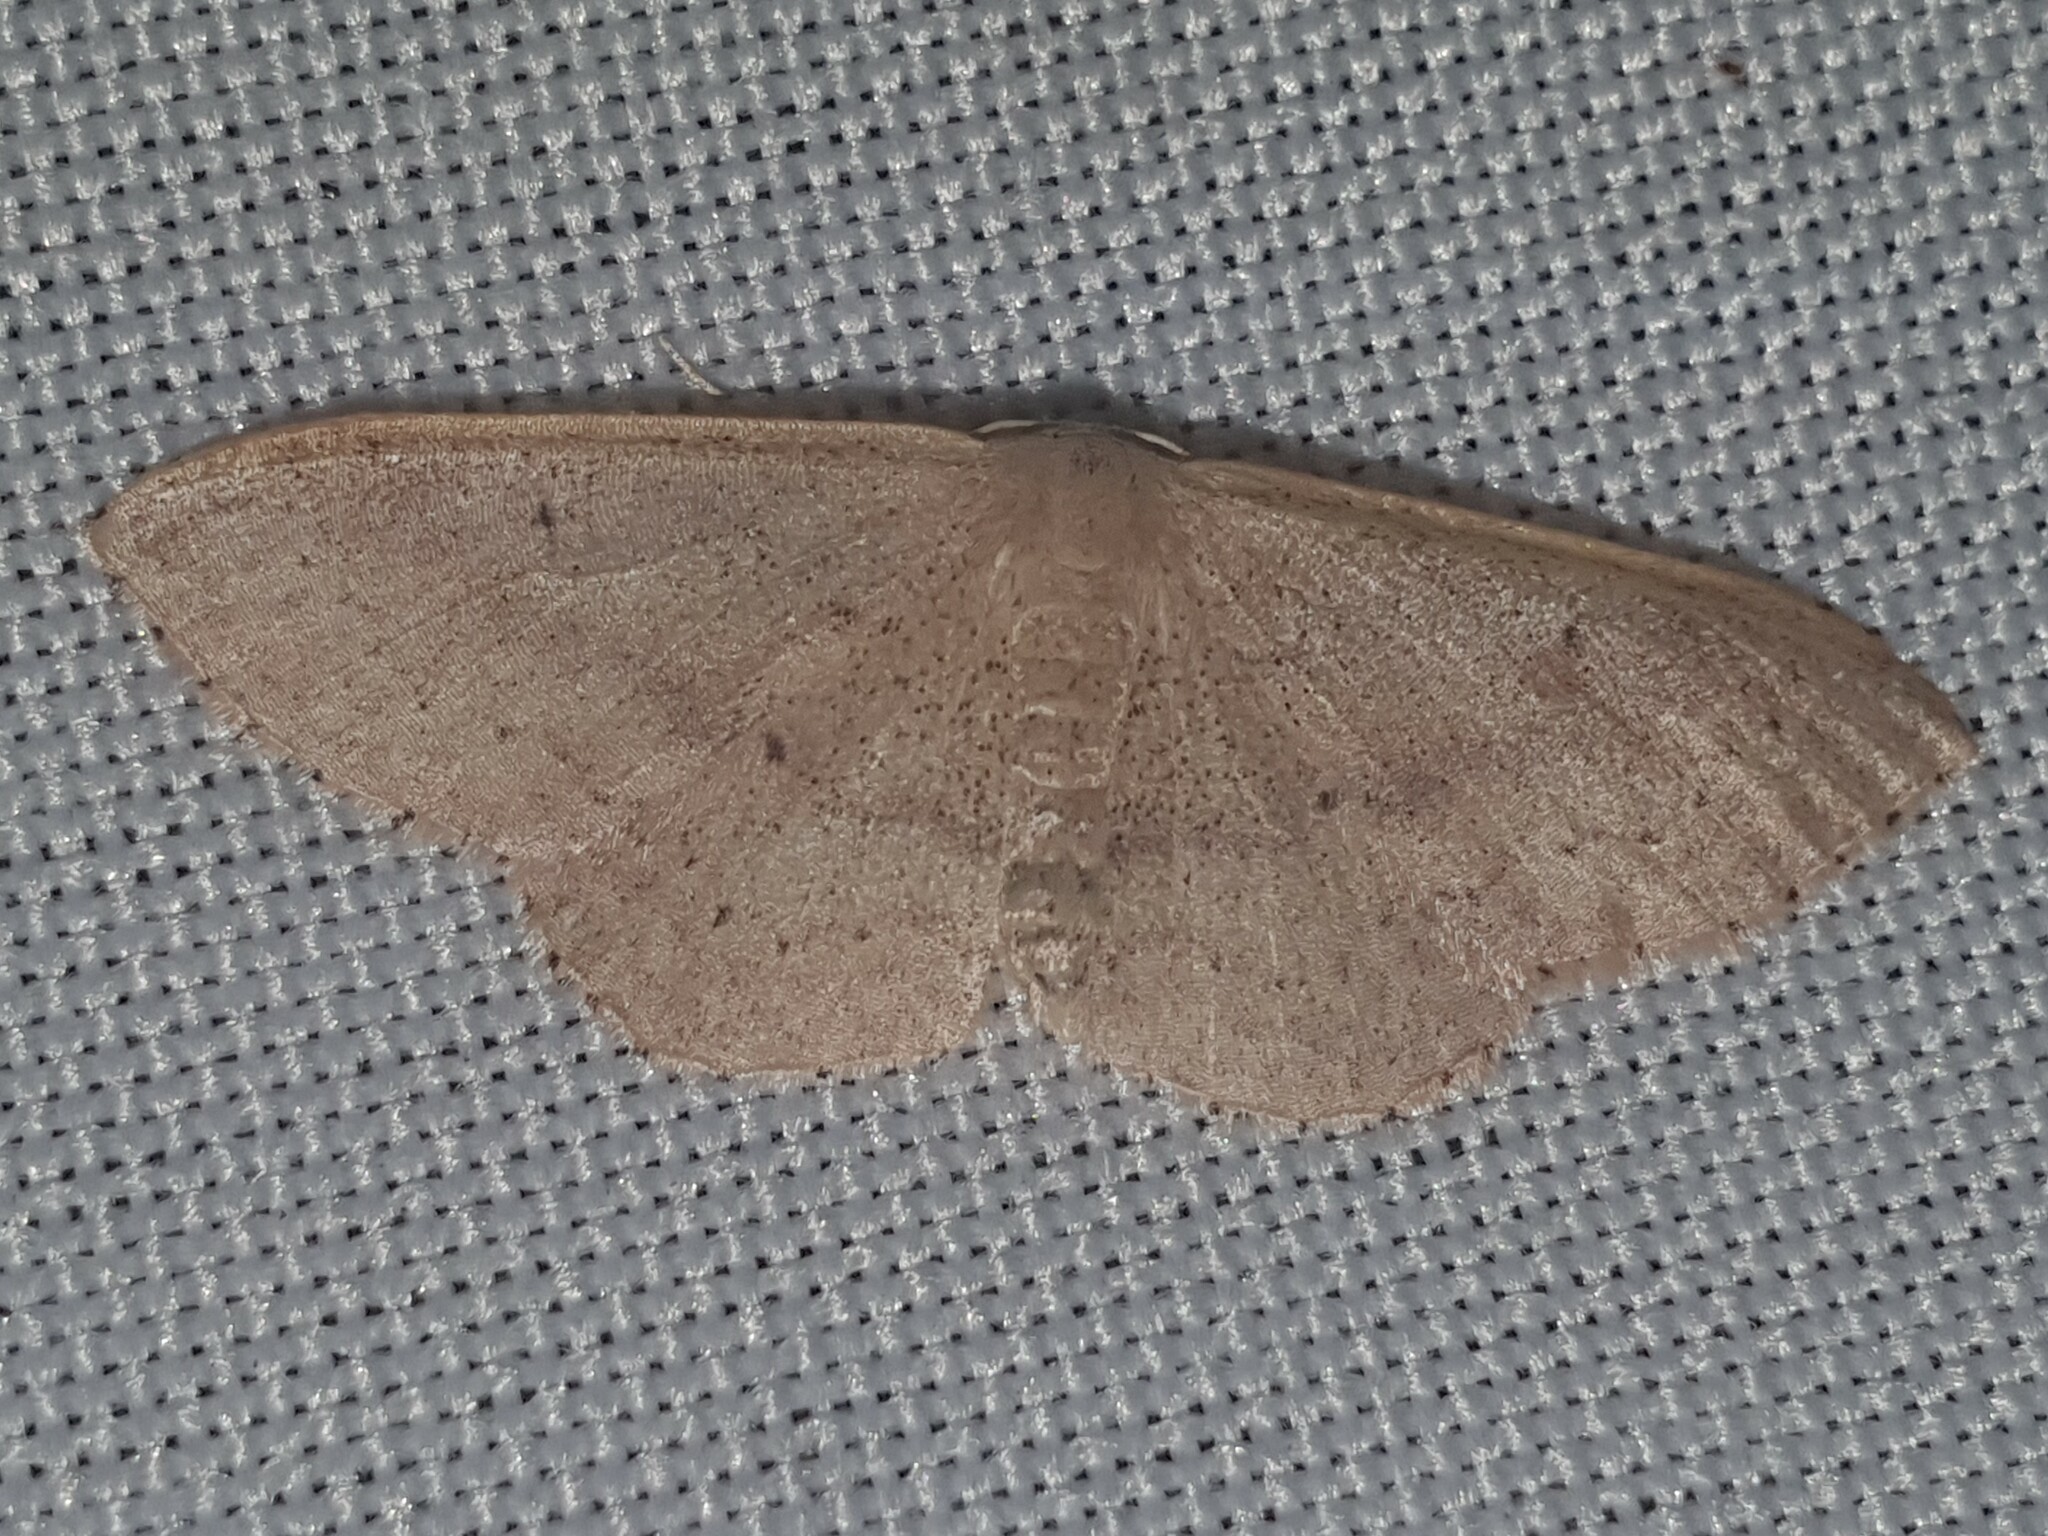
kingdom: Animalia
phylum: Arthropoda
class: Insecta
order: Lepidoptera
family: Geometridae
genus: Idaea
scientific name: Idaea eugeniata
